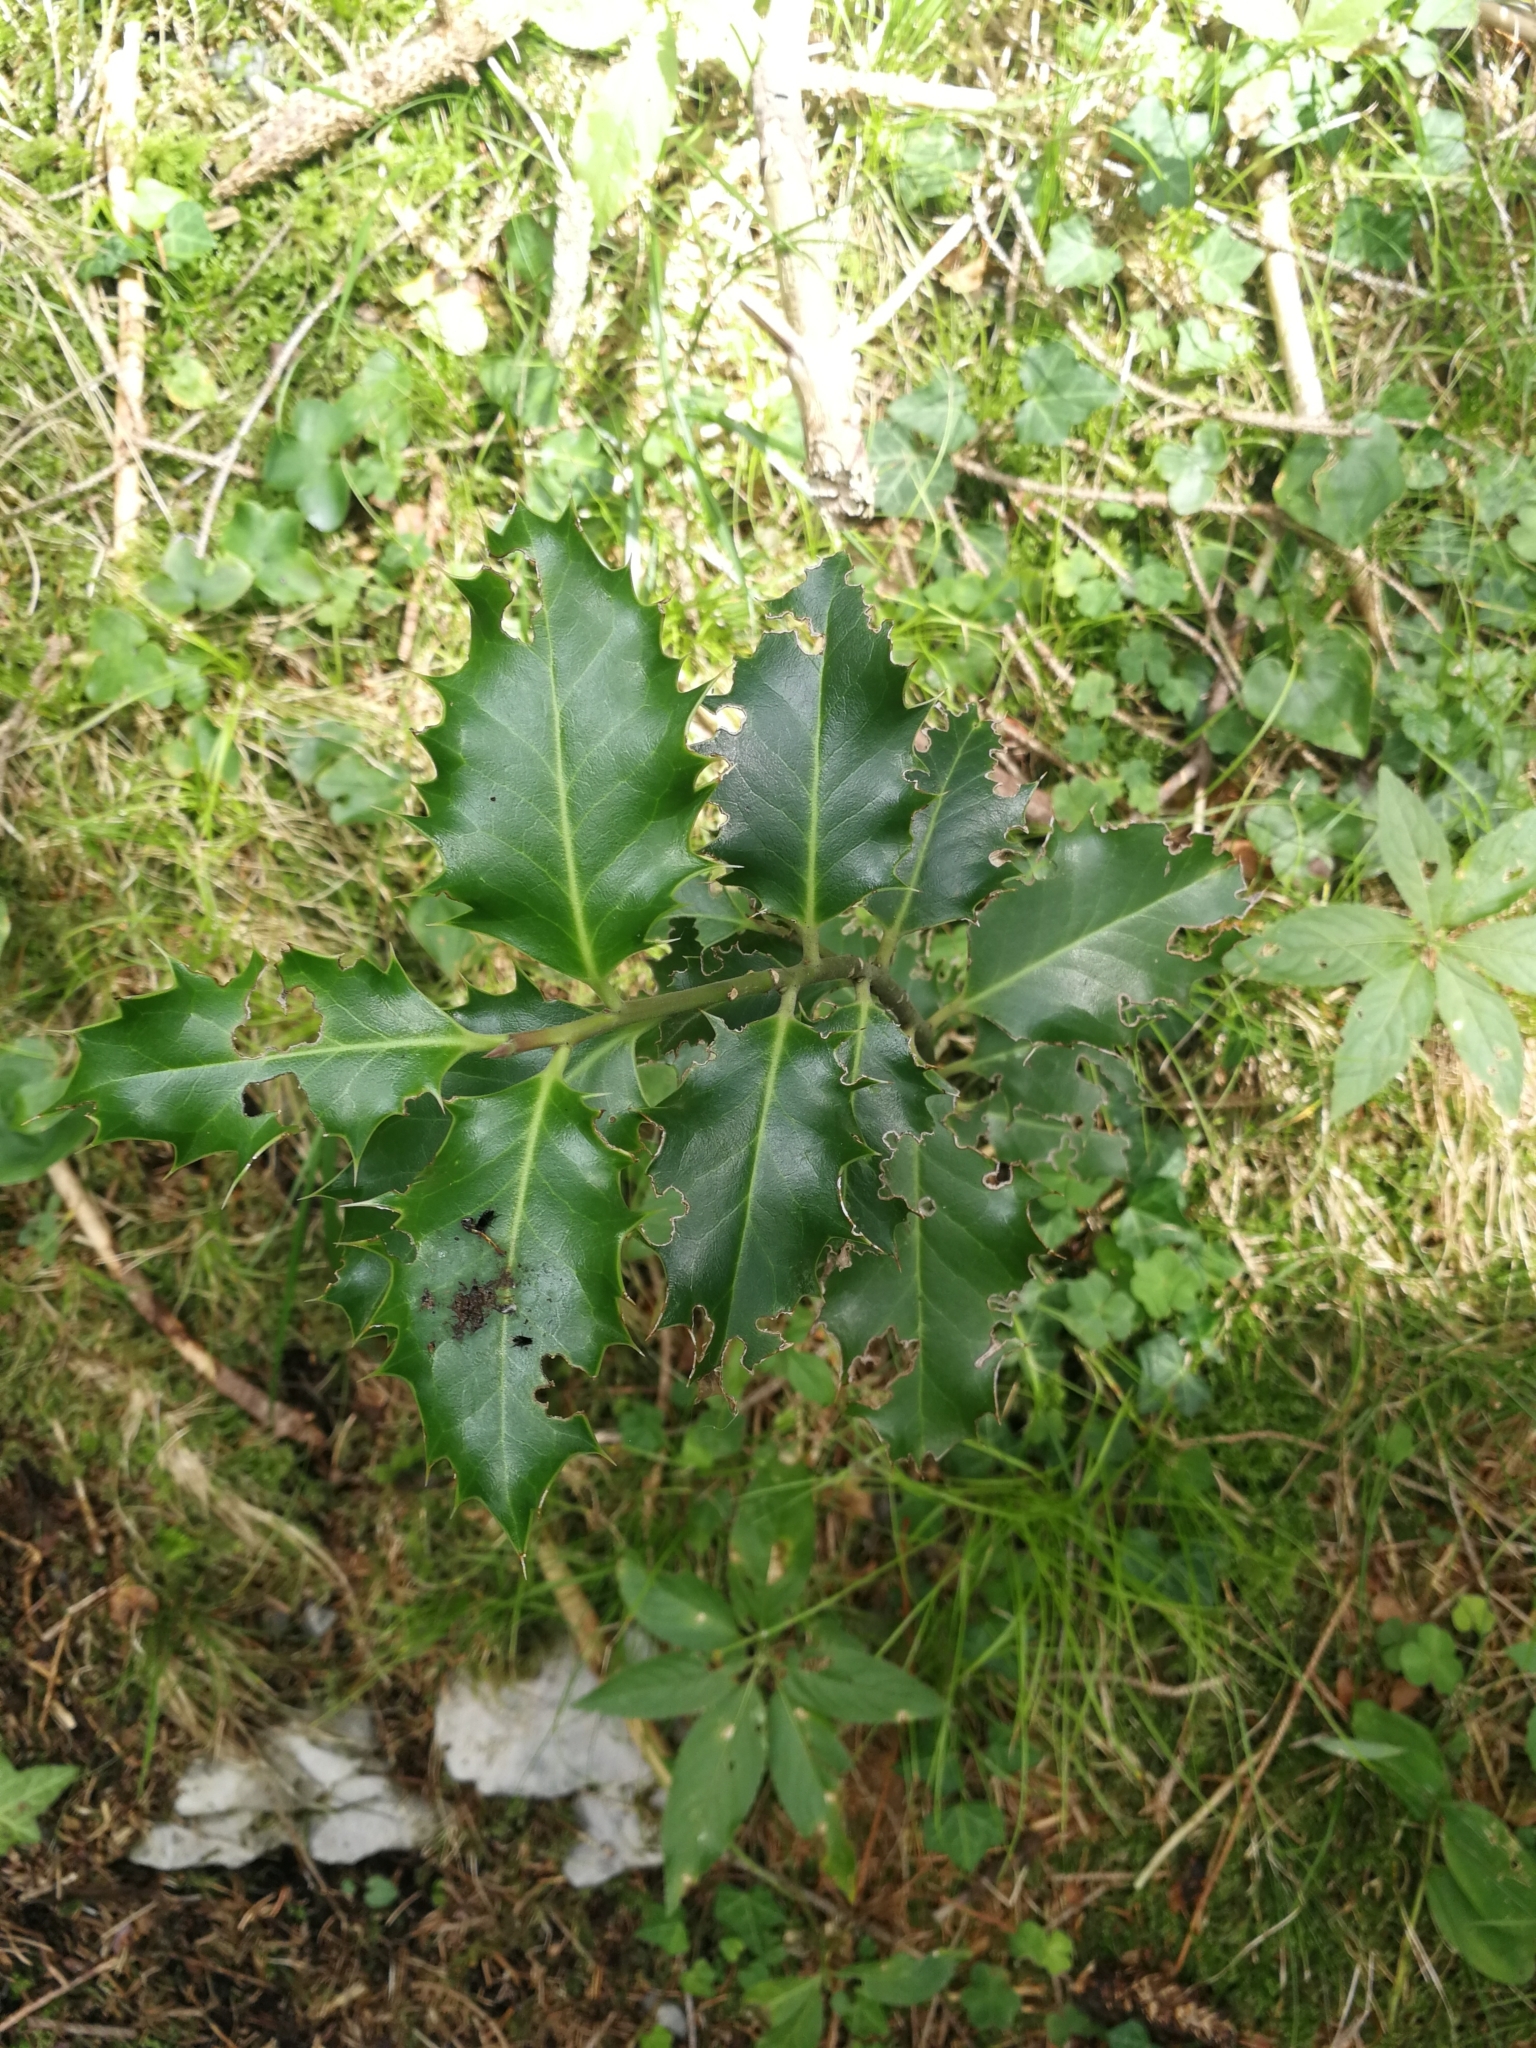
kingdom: Plantae
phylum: Tracheophyta
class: Magnoliopsida
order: Aquifoliales
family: Aquifoliaceae
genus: Ilex
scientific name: Ilex aquifolium
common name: English holly
